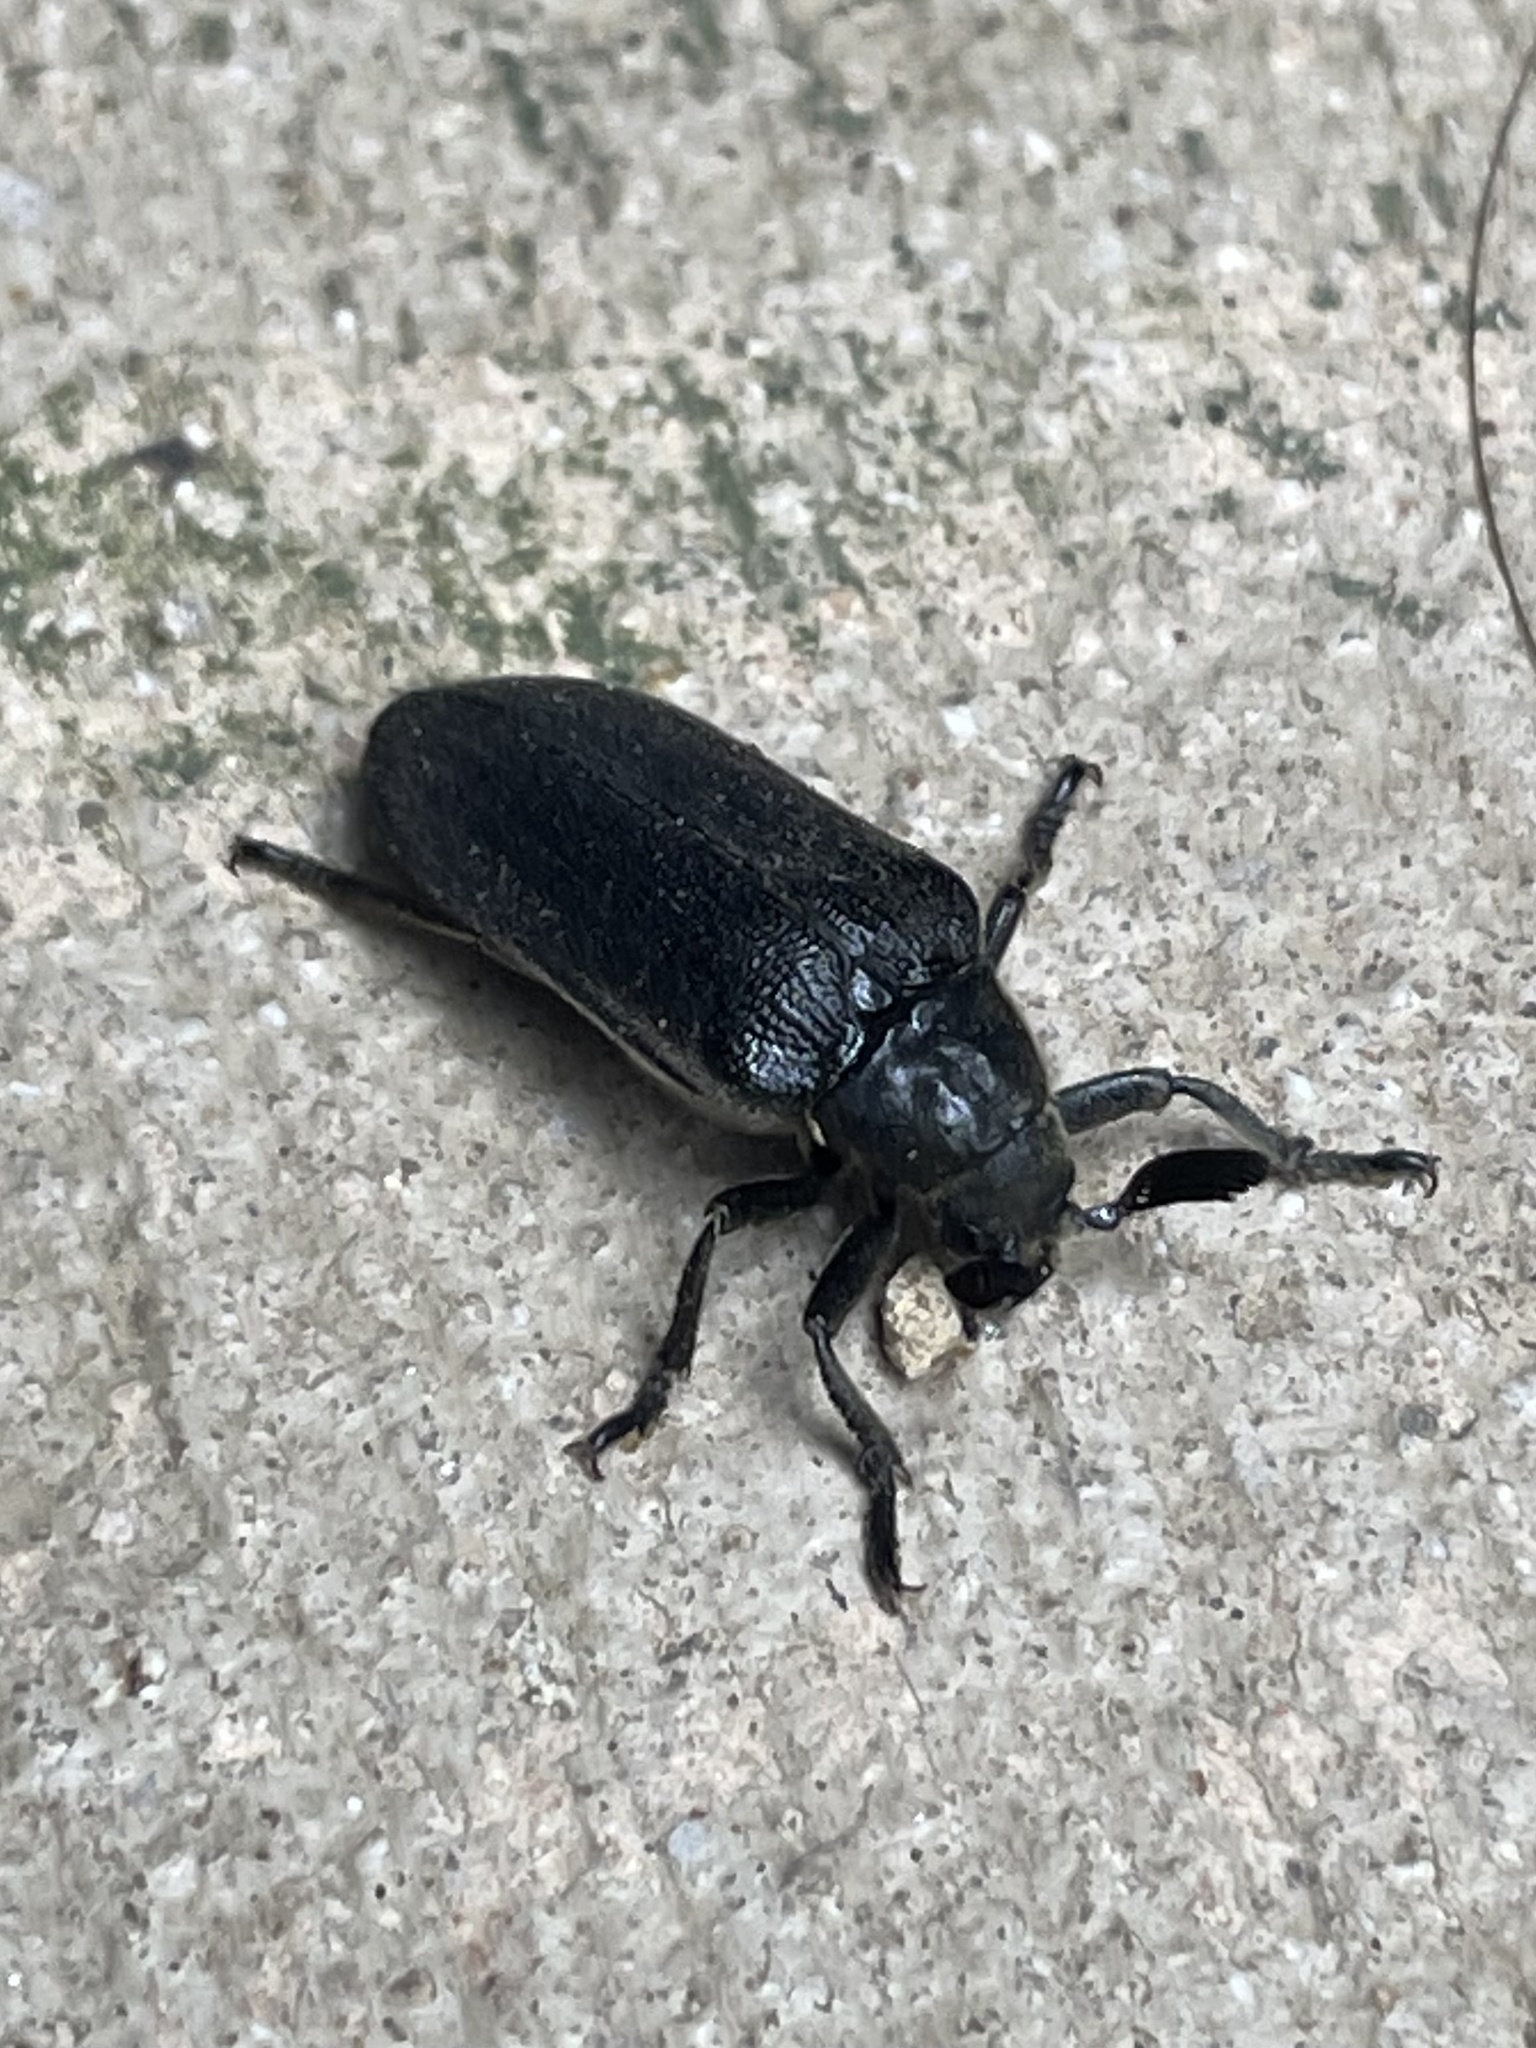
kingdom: Animalia
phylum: Arthropoda
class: Insecta
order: Coleoptera
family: Rhipiceridae
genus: Sandalus
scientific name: Sandalus niger
